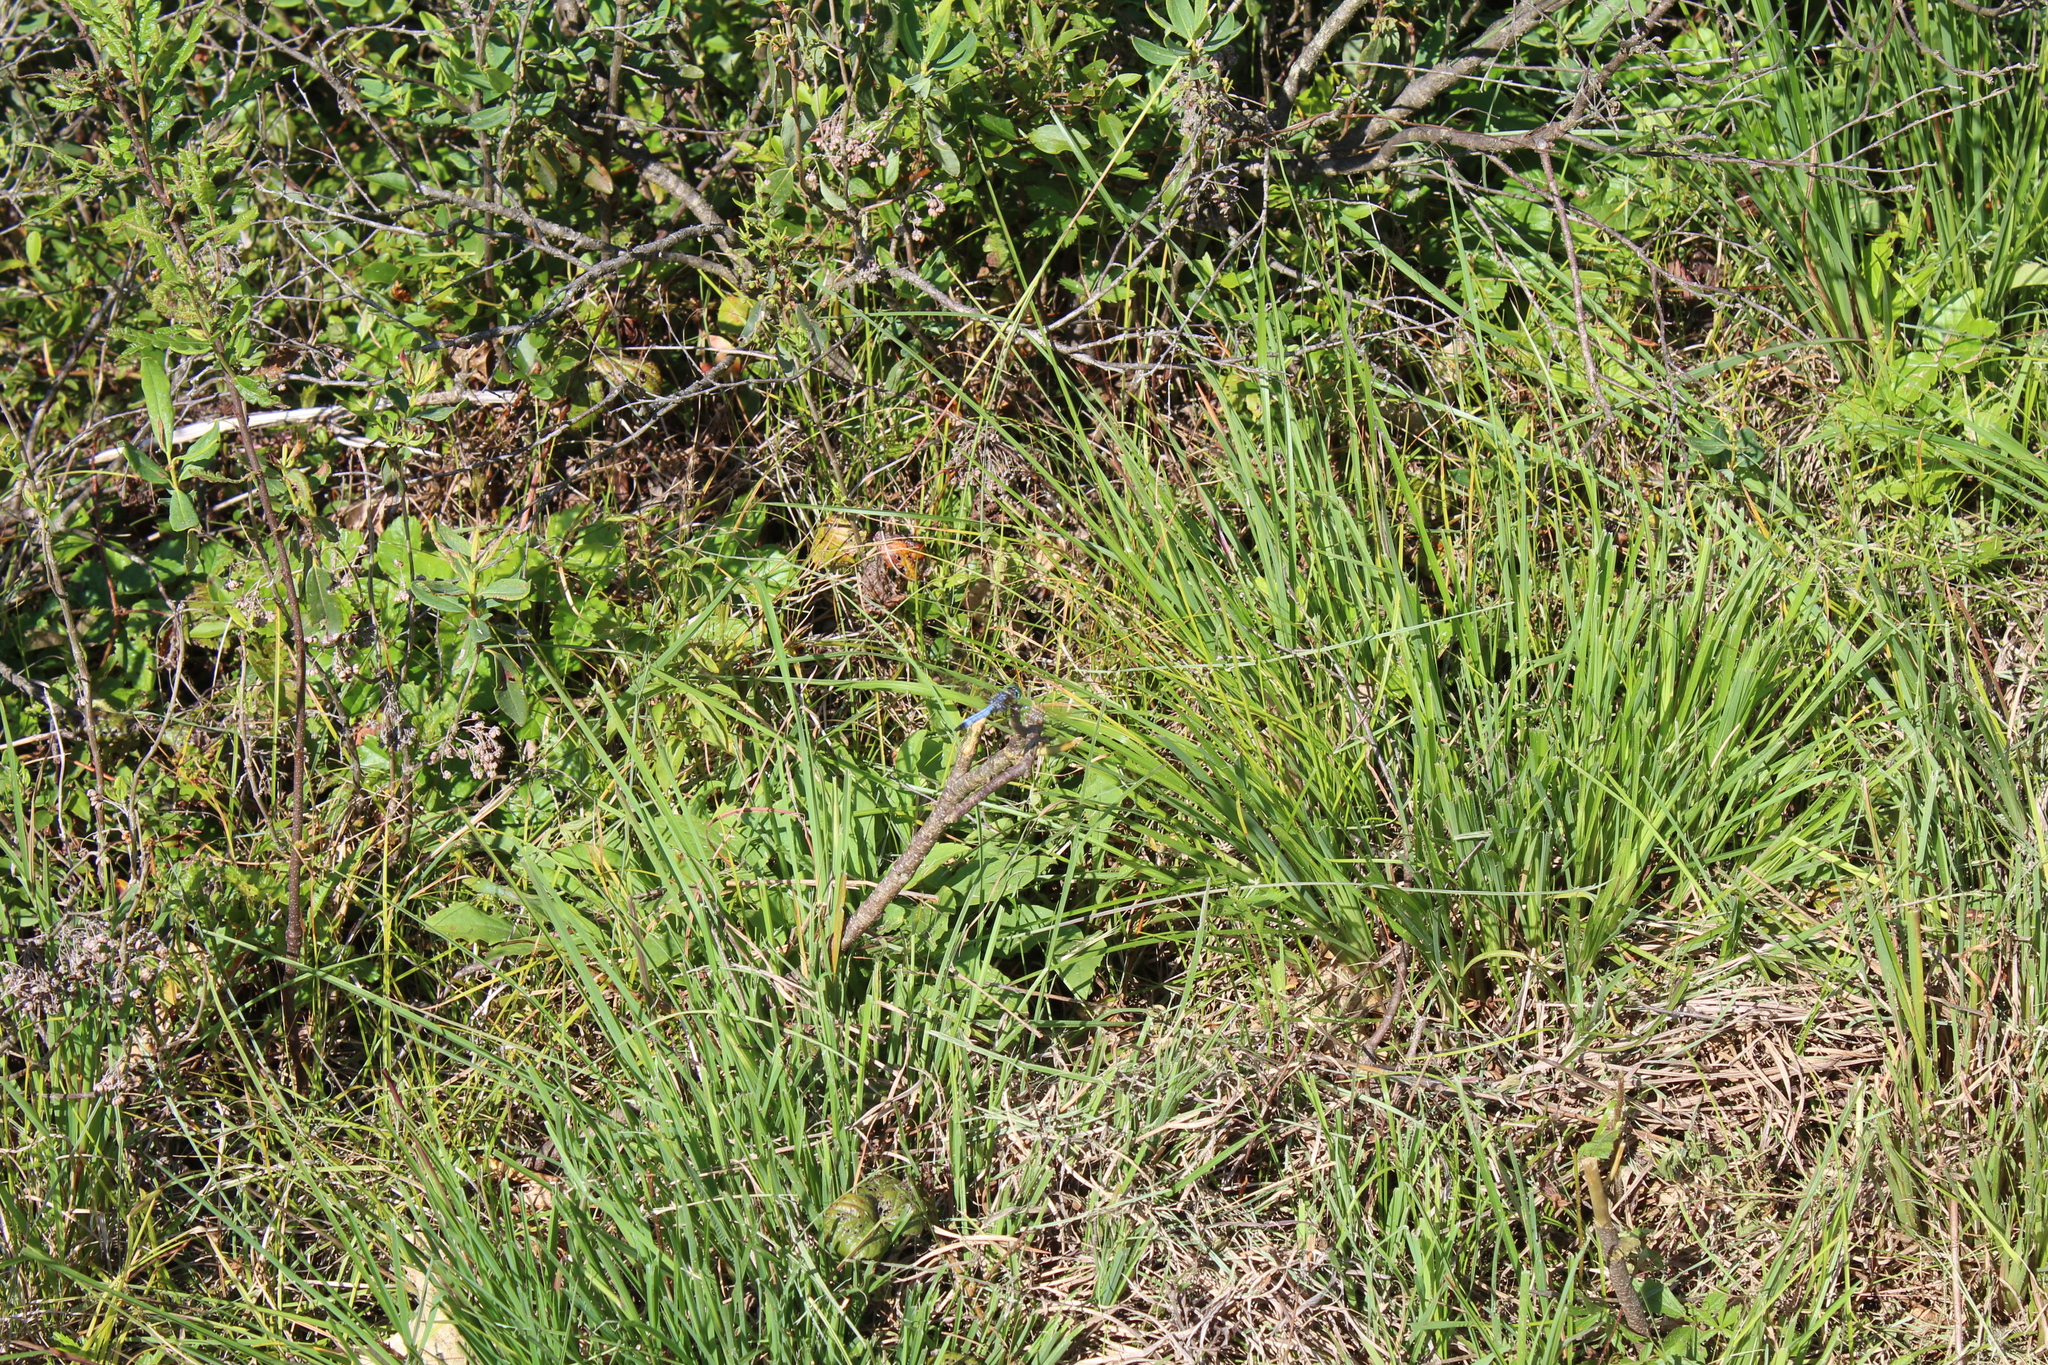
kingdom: Animalia
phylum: Arthropoda
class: Insecta
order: Odonata
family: Libellulidae
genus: Pachydiplax
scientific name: Pachydiplax longipennis
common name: Blue dasher
